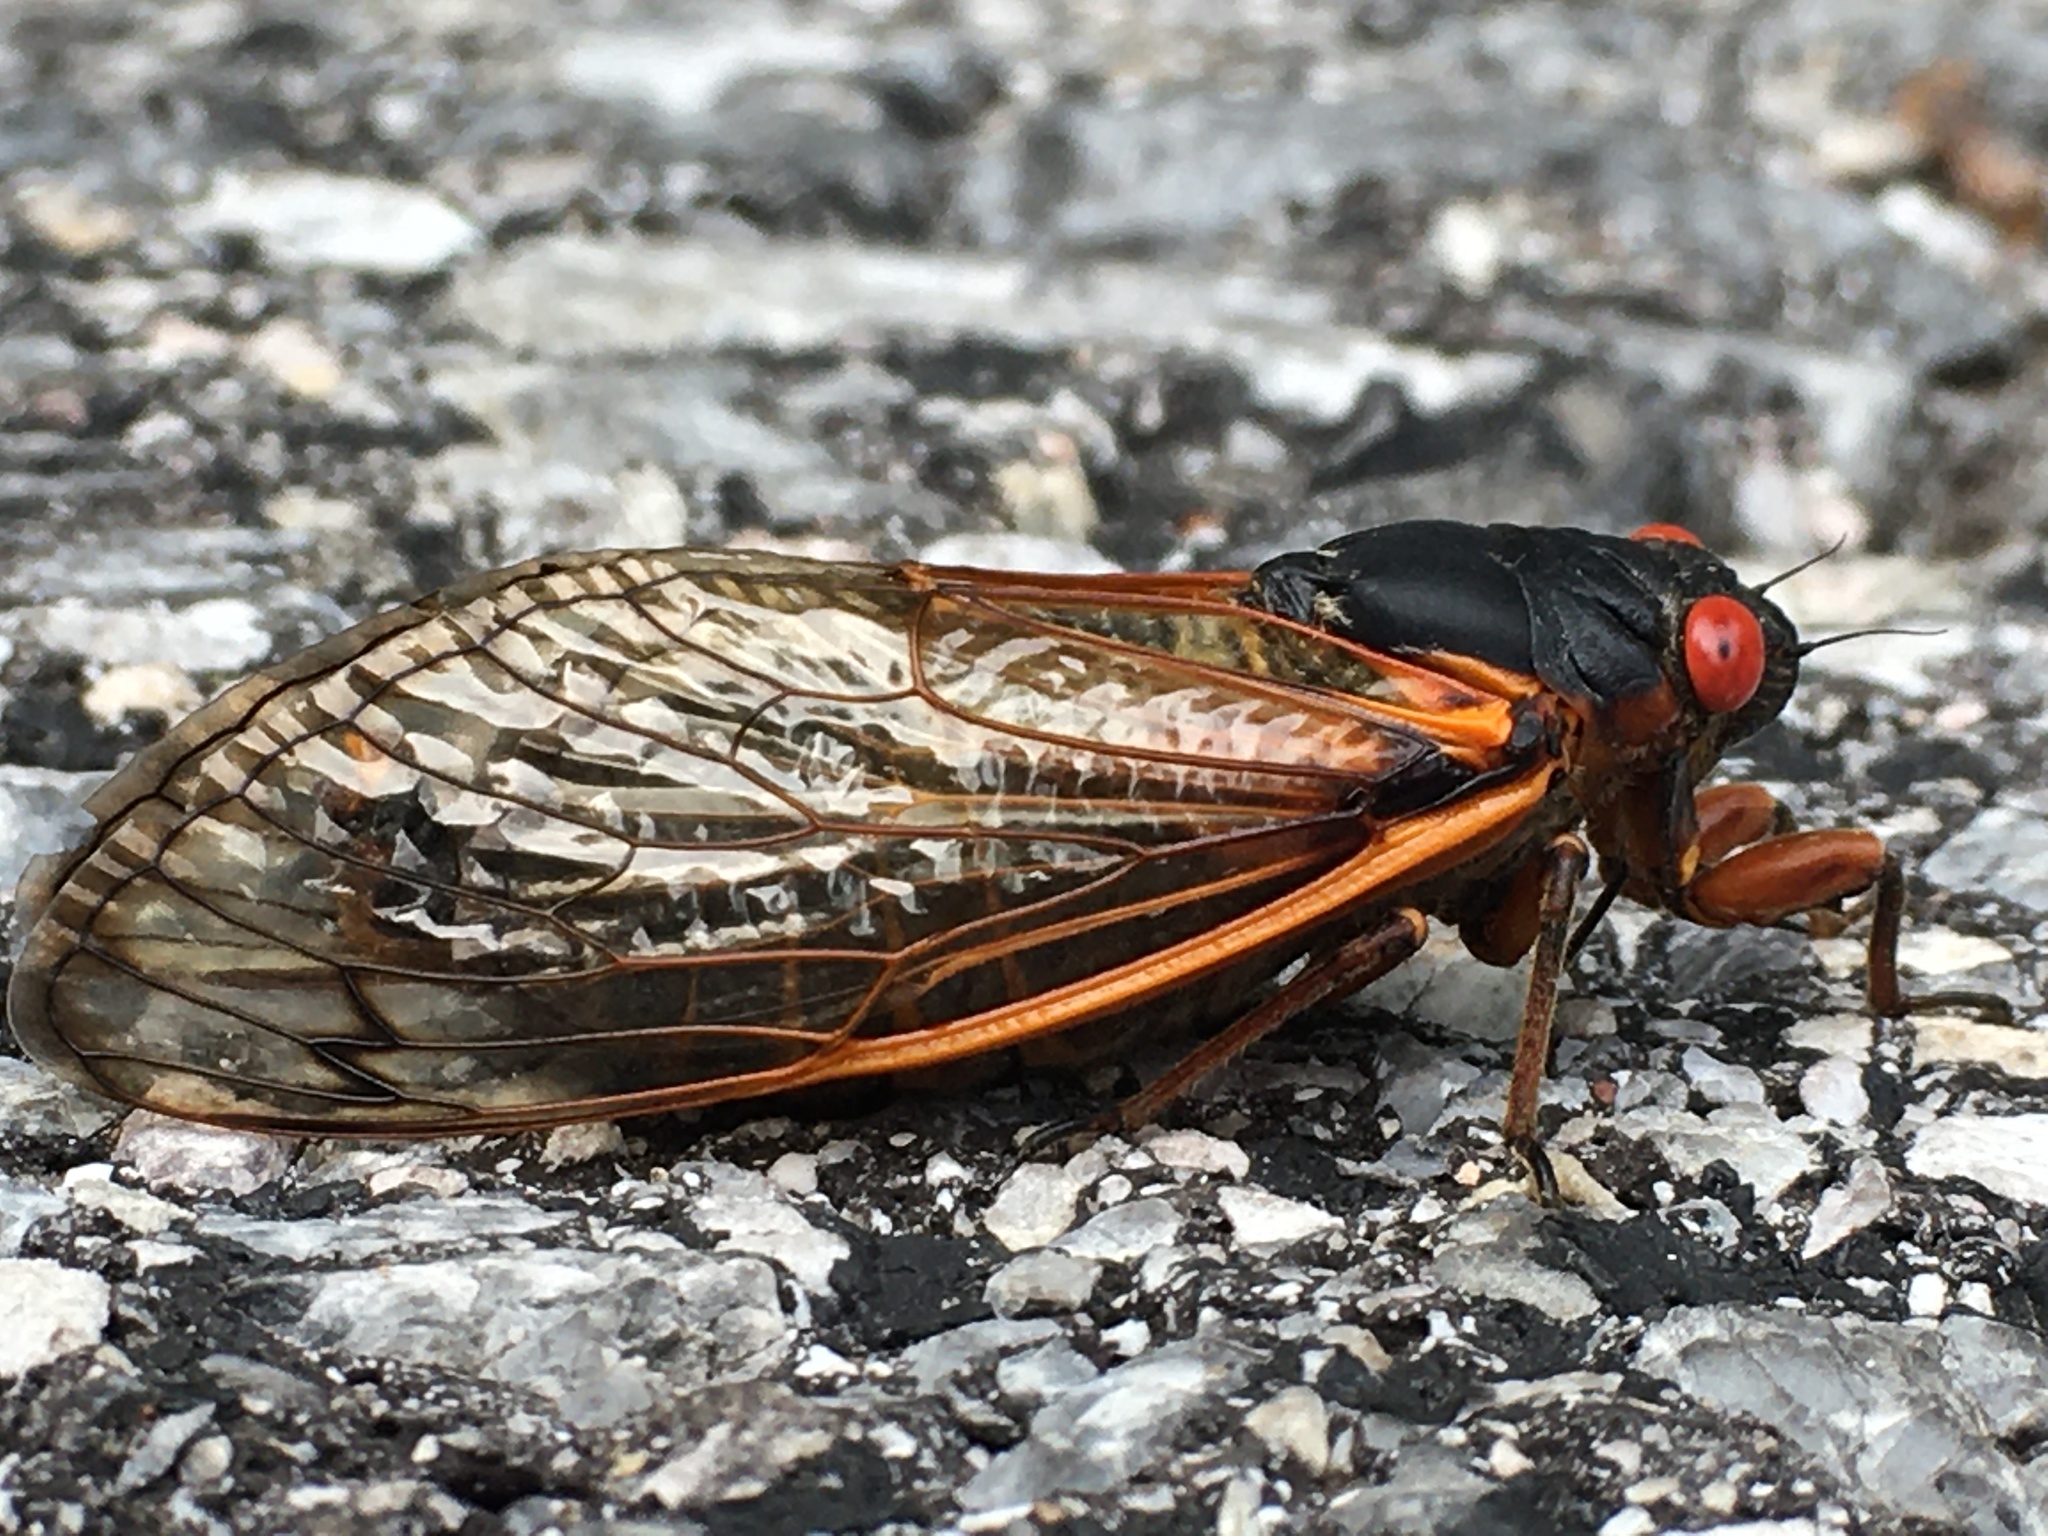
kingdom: Animalia
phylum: Arthropoda
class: Insecta
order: Hemiptera
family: Cicadidae
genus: Magicicada
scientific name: Magicicada septendecim
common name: Periodical cicada
